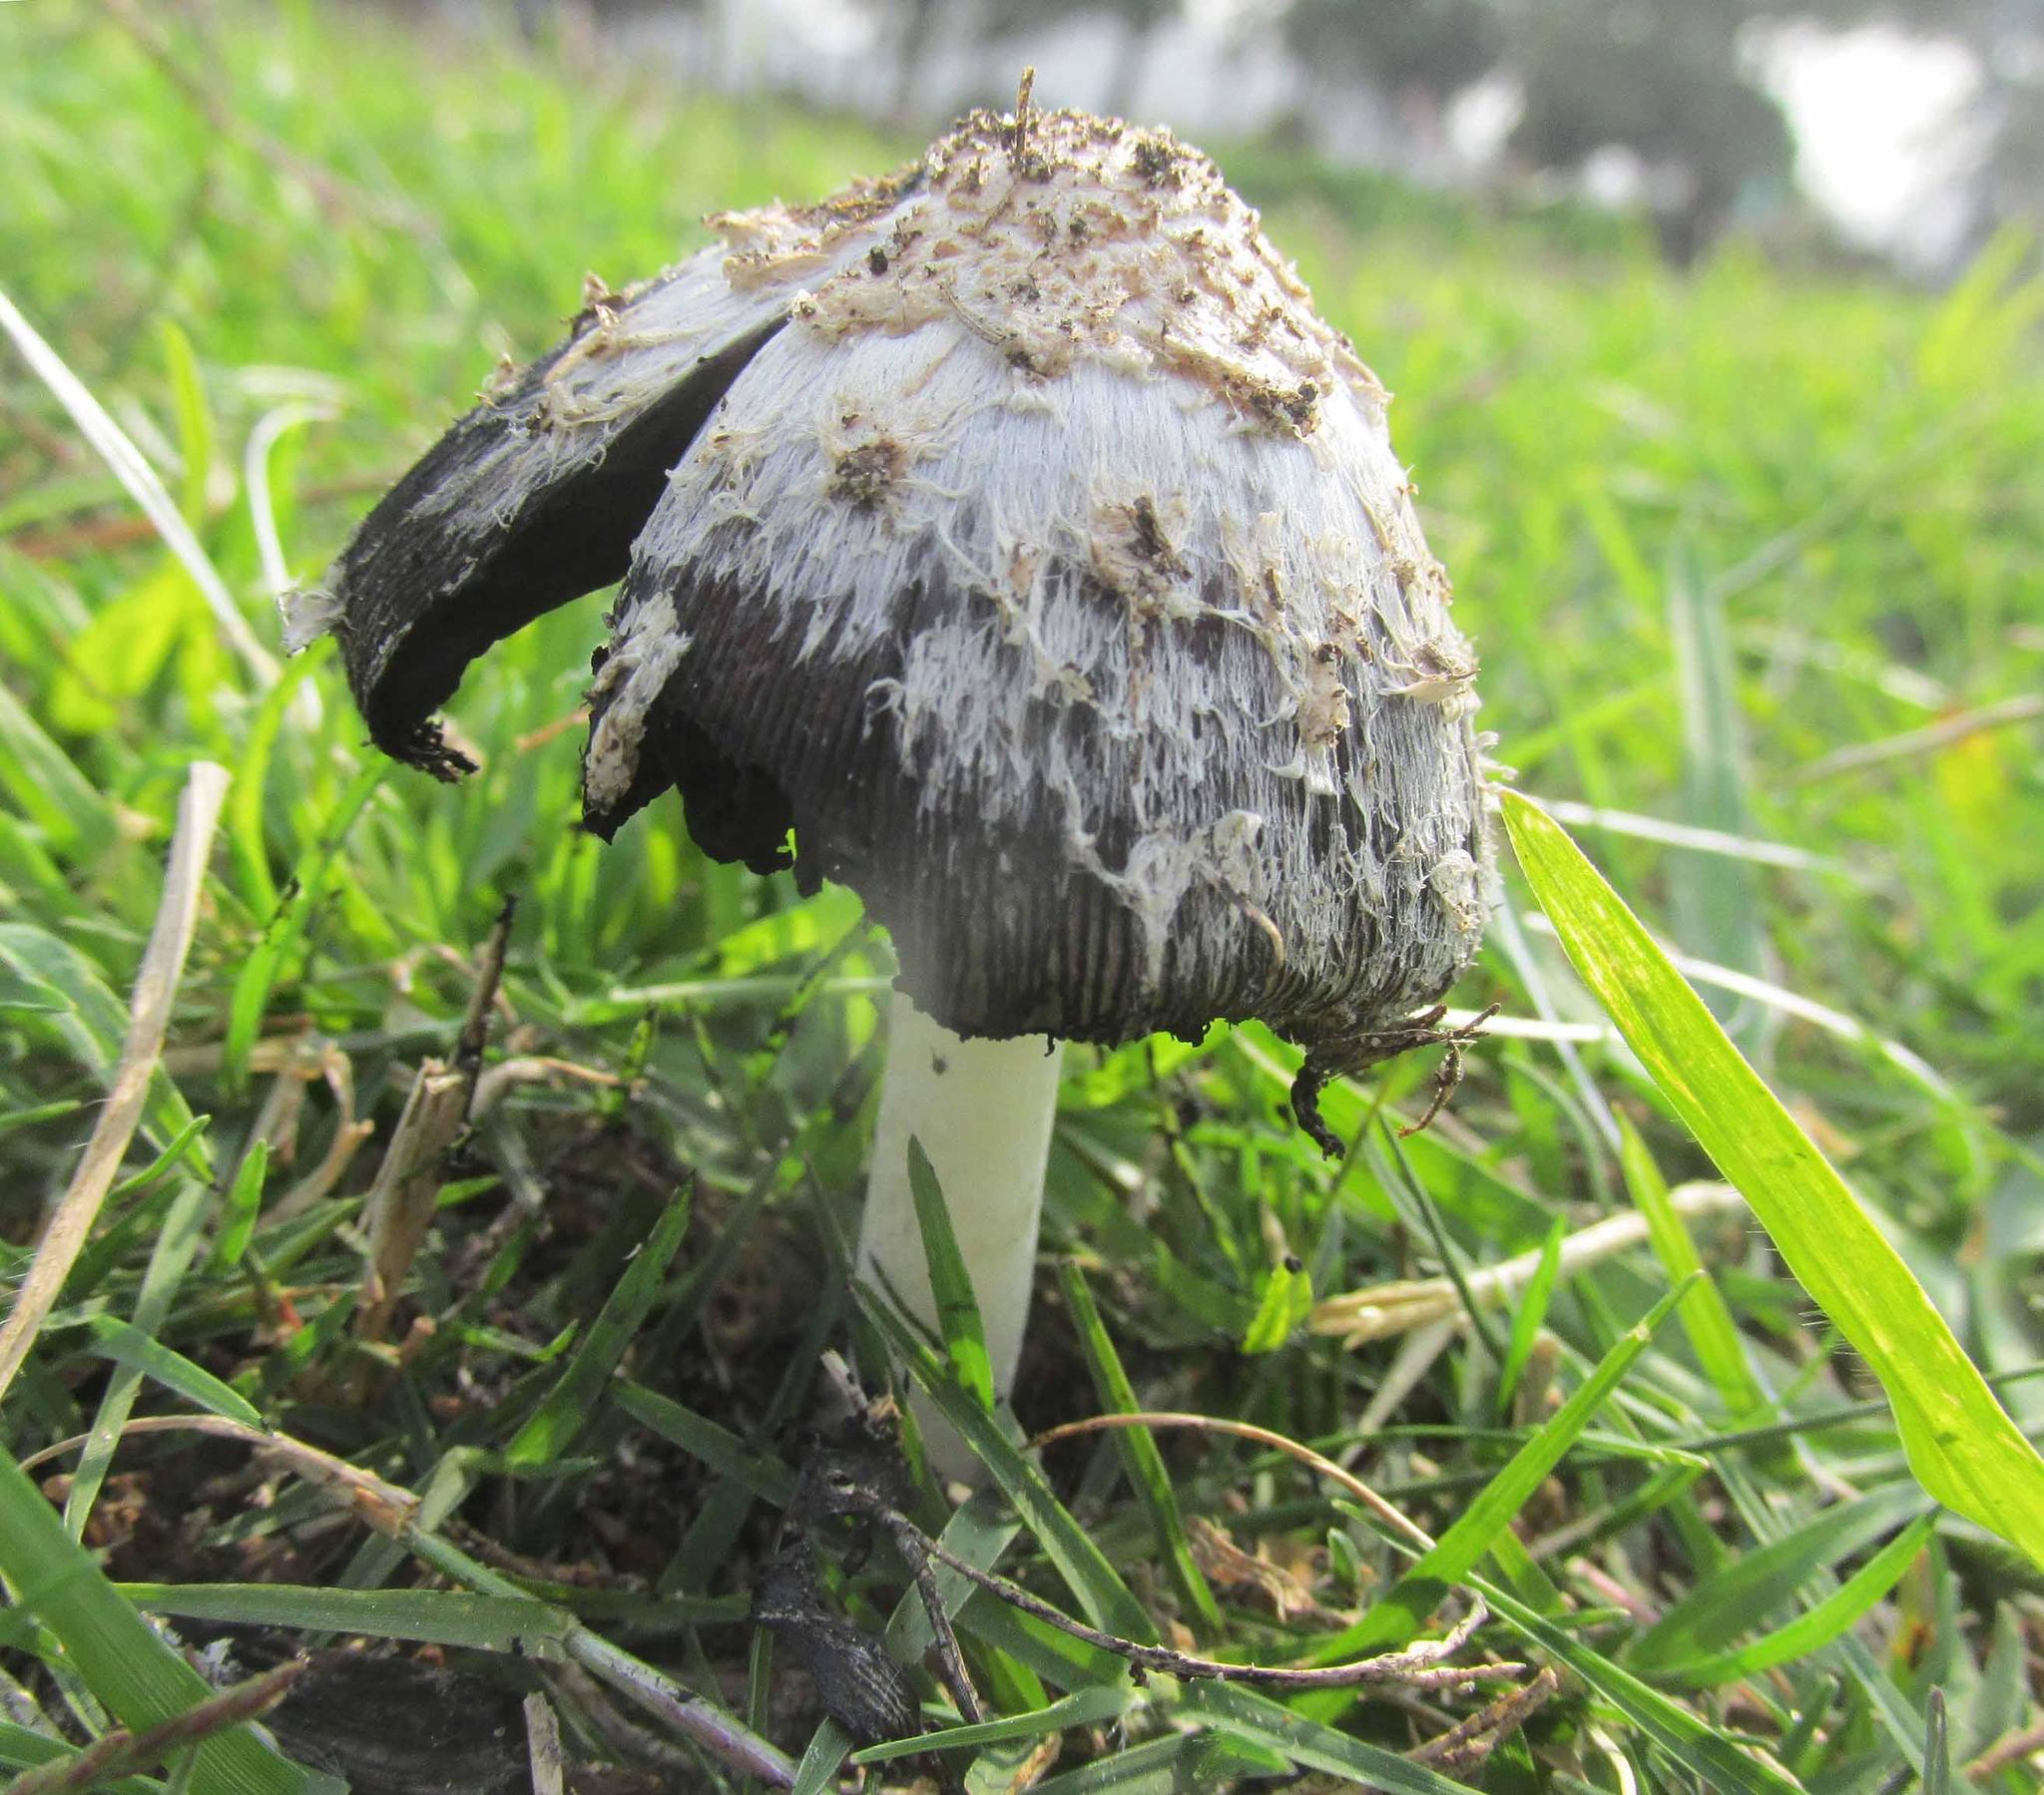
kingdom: Fungi
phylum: Basidiomycota
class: Agaricomycetes
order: Agaricales
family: Agaricaceae
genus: Coprinus
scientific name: Coprinus comatus
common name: Lawyer's wig
